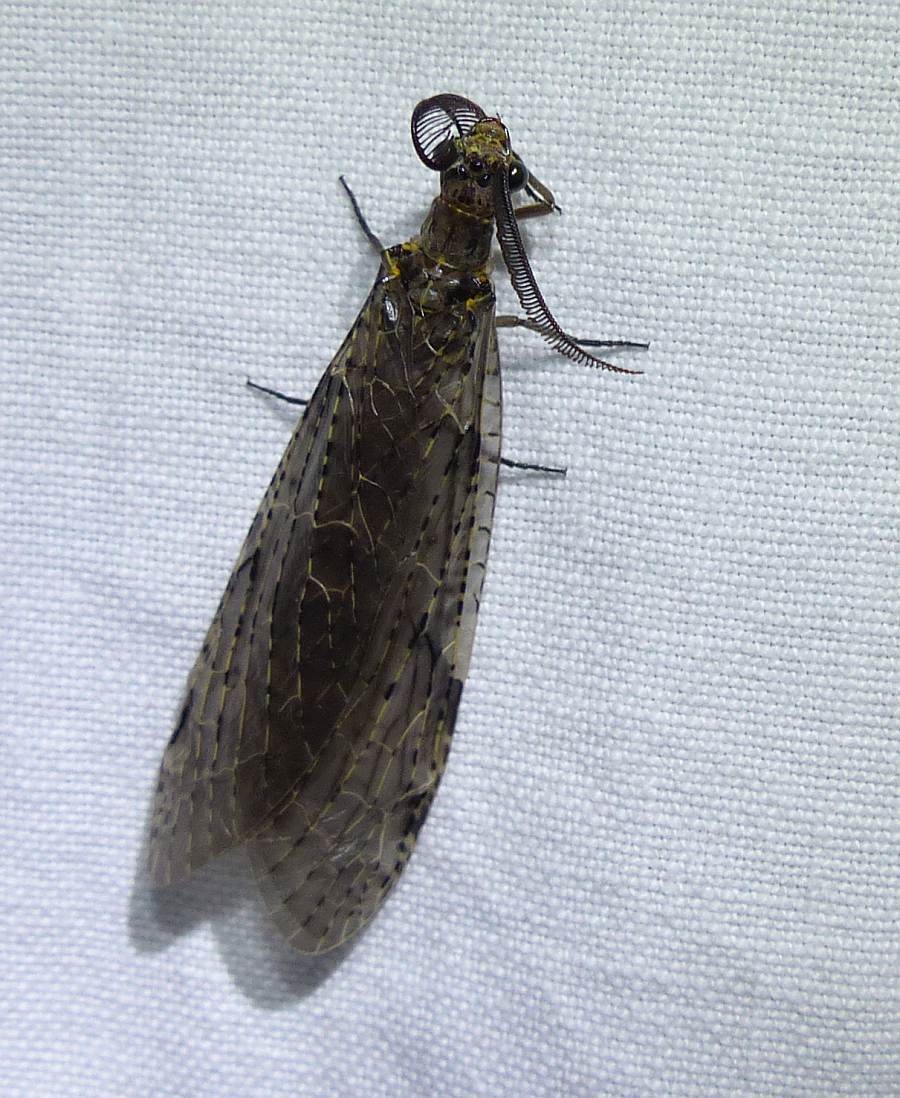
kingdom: Animalia
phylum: Arthropoda
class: Insecta
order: Megaloptera
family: Corydalidae
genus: Chauliodes
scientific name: Chauliodes rastricornis
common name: Spring fishfly
